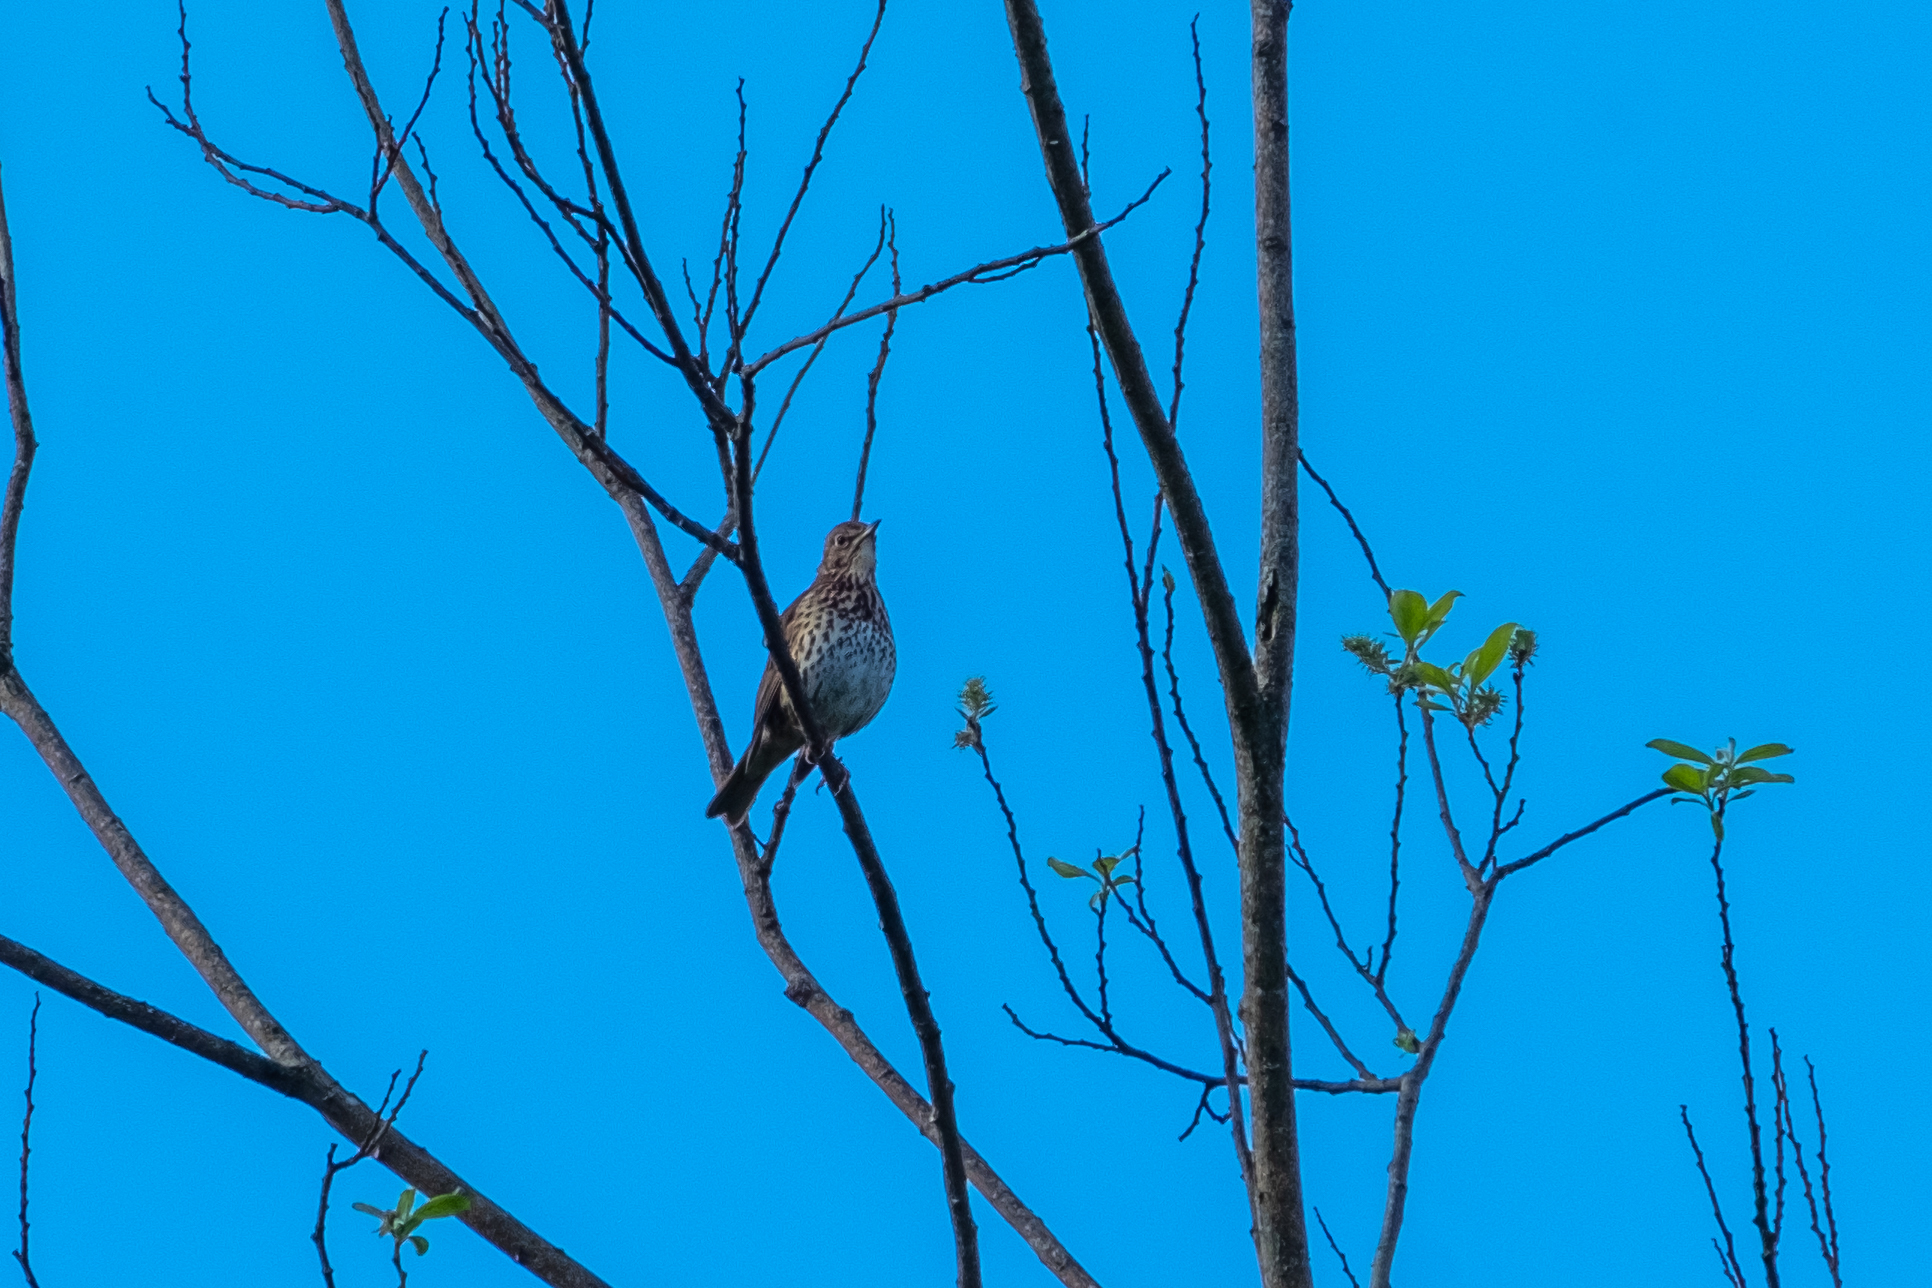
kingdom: Animalia
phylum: Chordata
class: Aves
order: Passeriformes
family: Turdidae
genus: Turdus
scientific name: Turdus philomelos
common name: Song thrush
